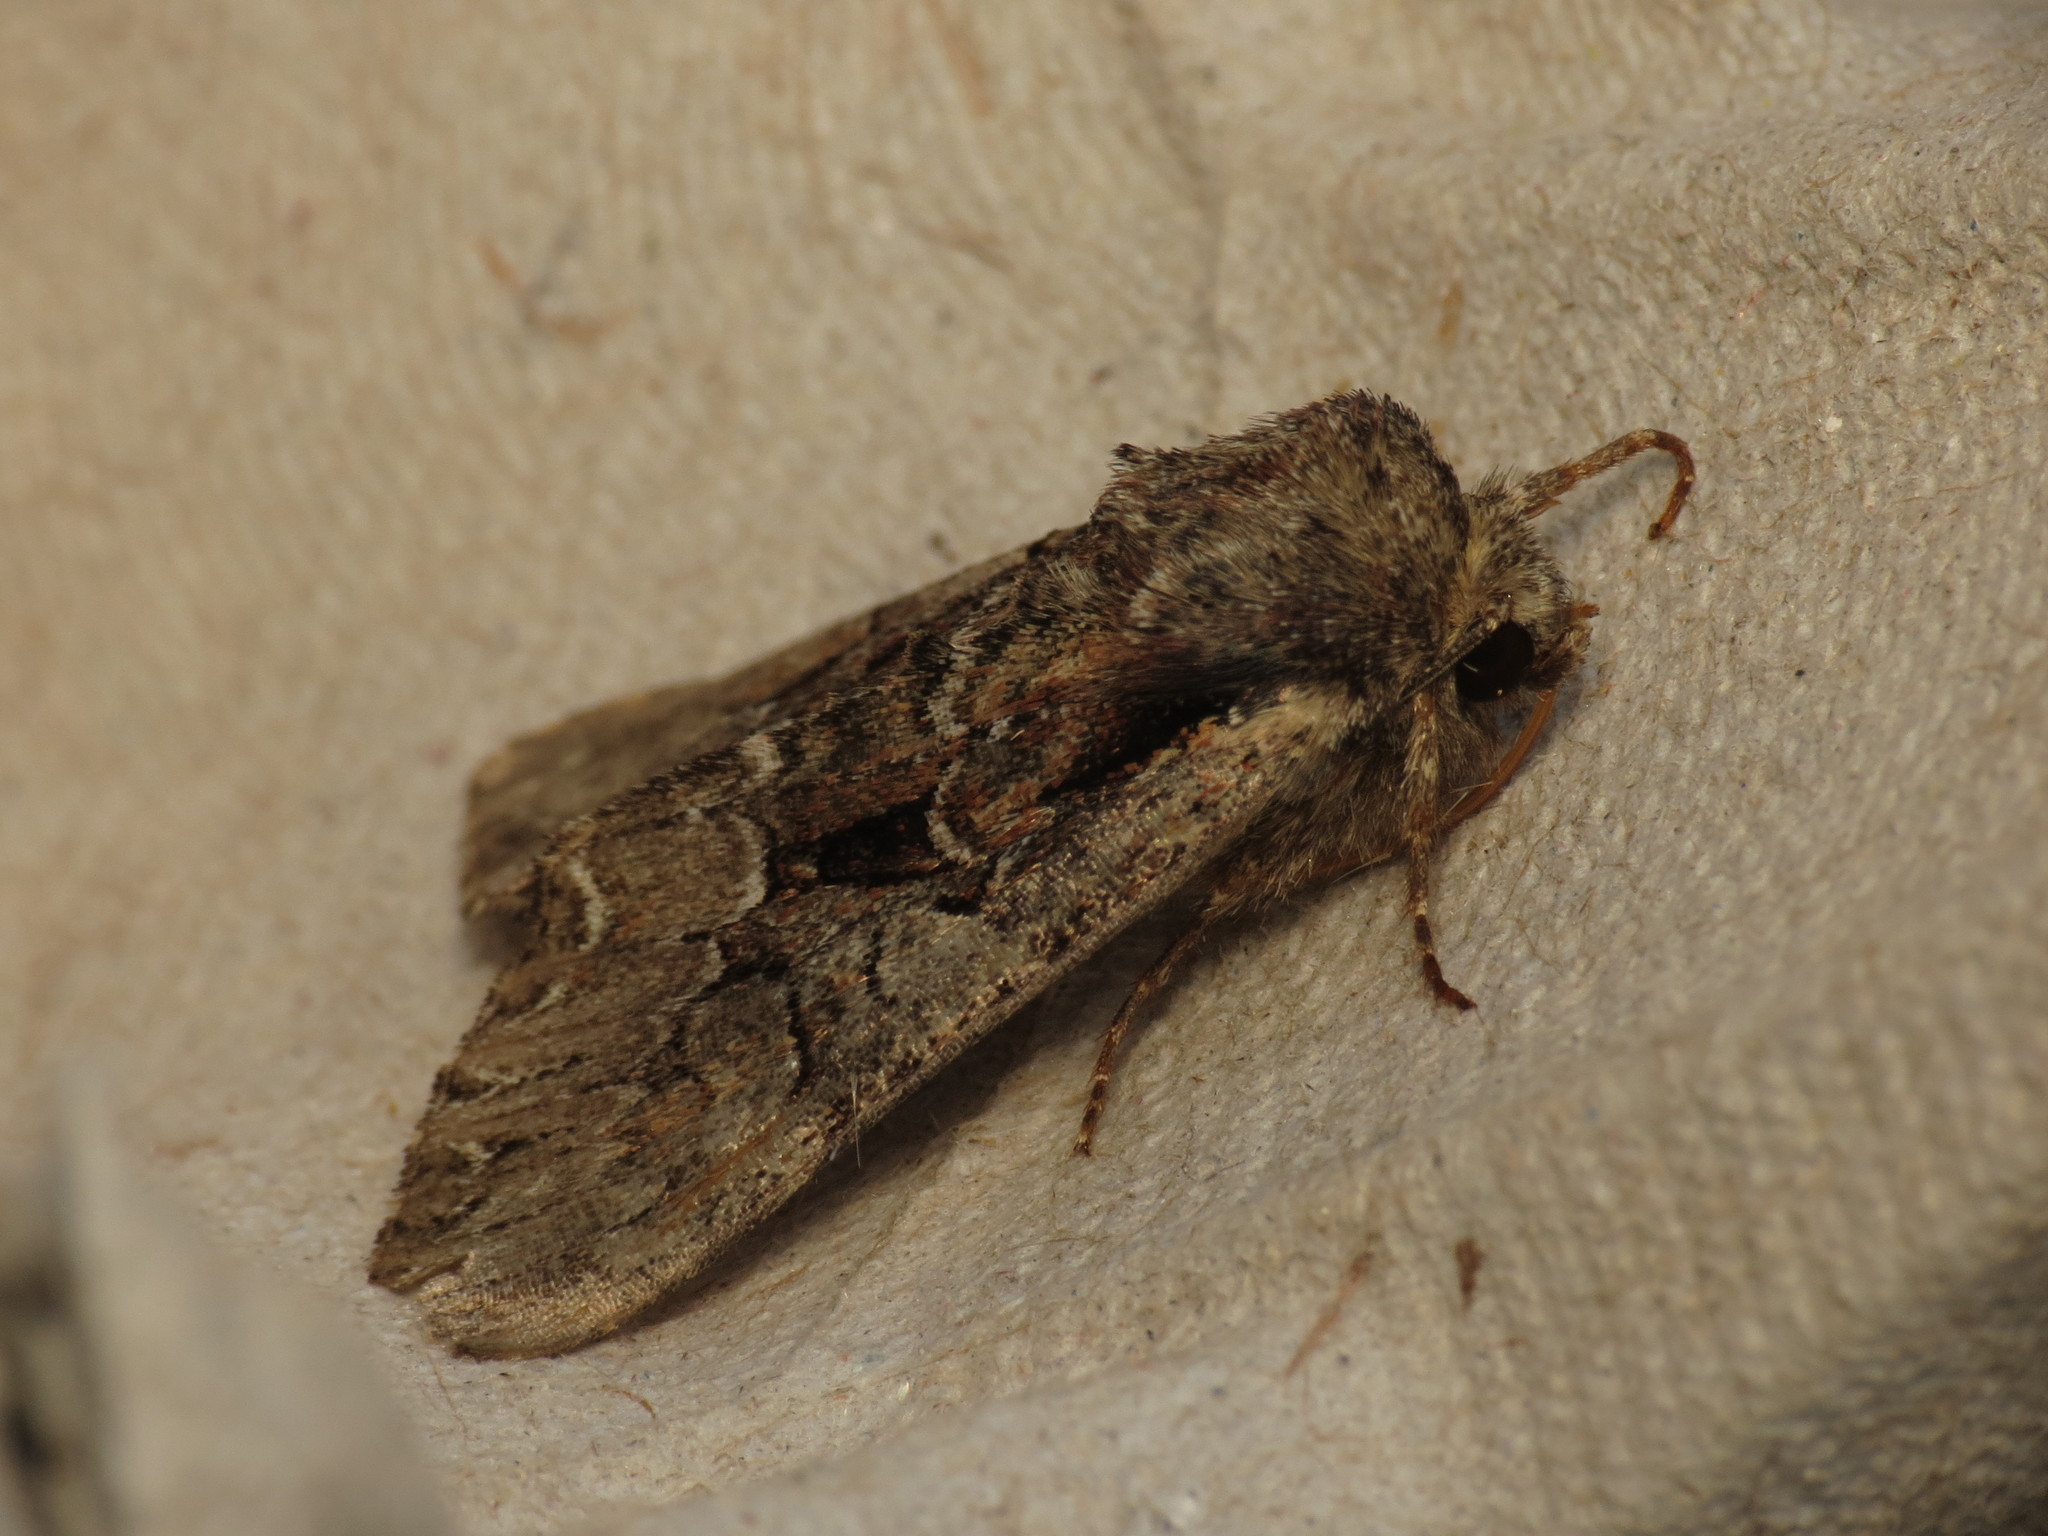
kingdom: Animalia
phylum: Arthropoda
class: Insecta
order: Lepidoptera
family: Noctuidae
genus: Lacanobia
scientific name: Lacanobia thalassina
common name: Pale-shouldered brocade
